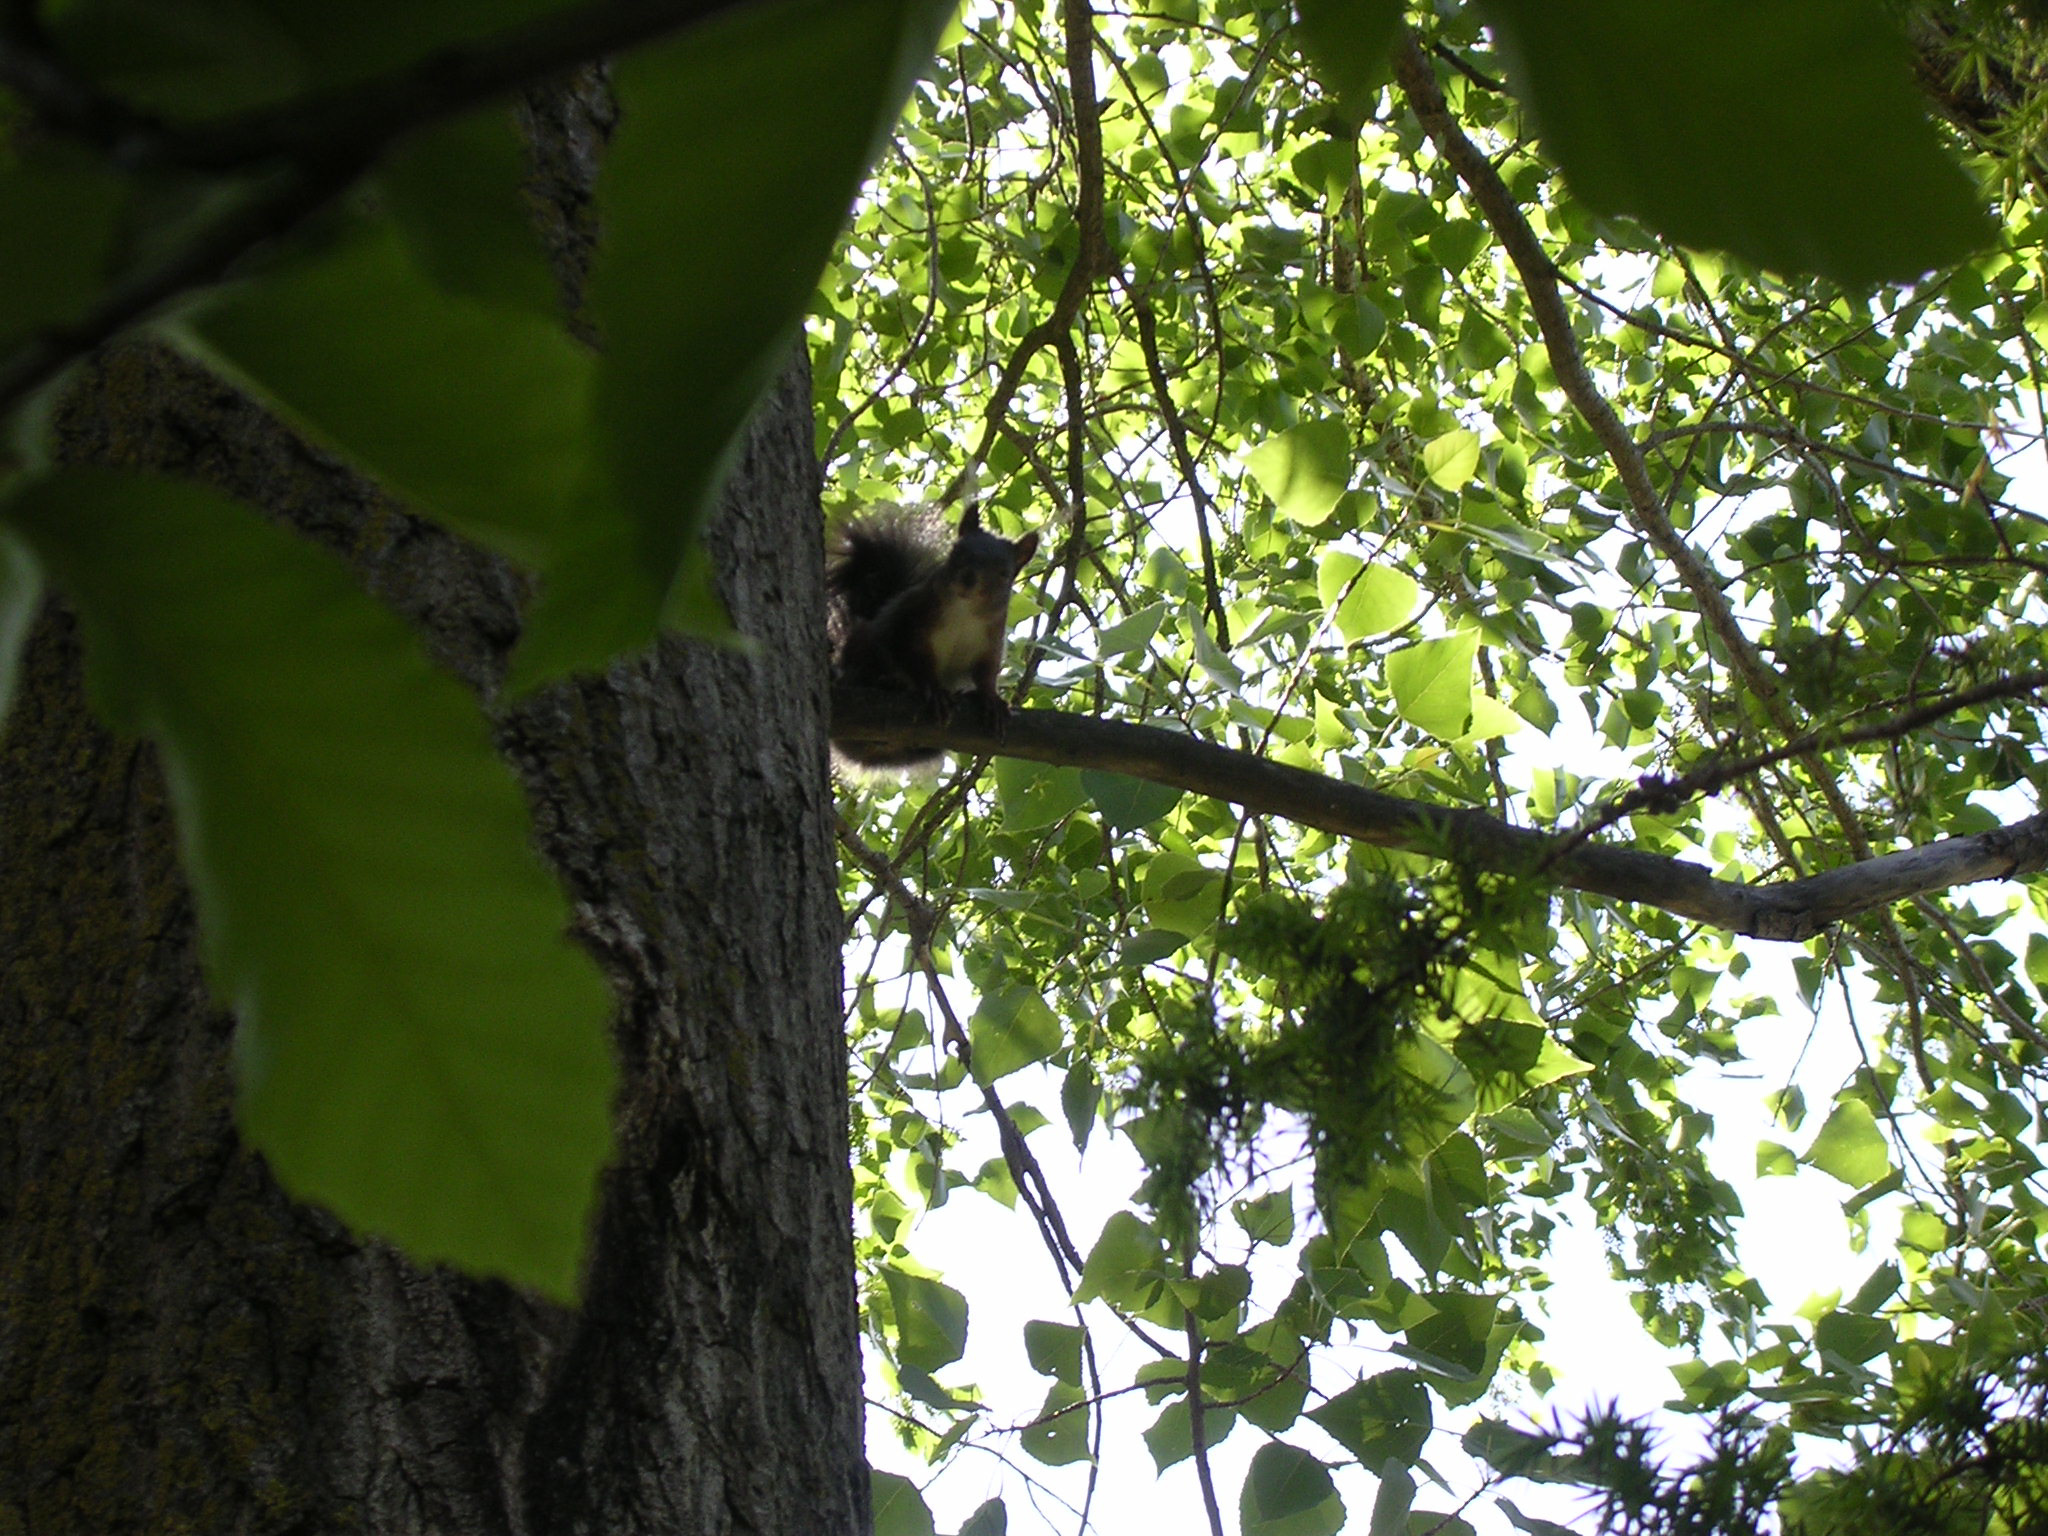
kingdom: Animalia
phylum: Chordata
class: Mammalia
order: Rodentia
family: Sciuridae
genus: Sciurus
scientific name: Sciurus vulgaris
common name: Eurasian red squirrel
